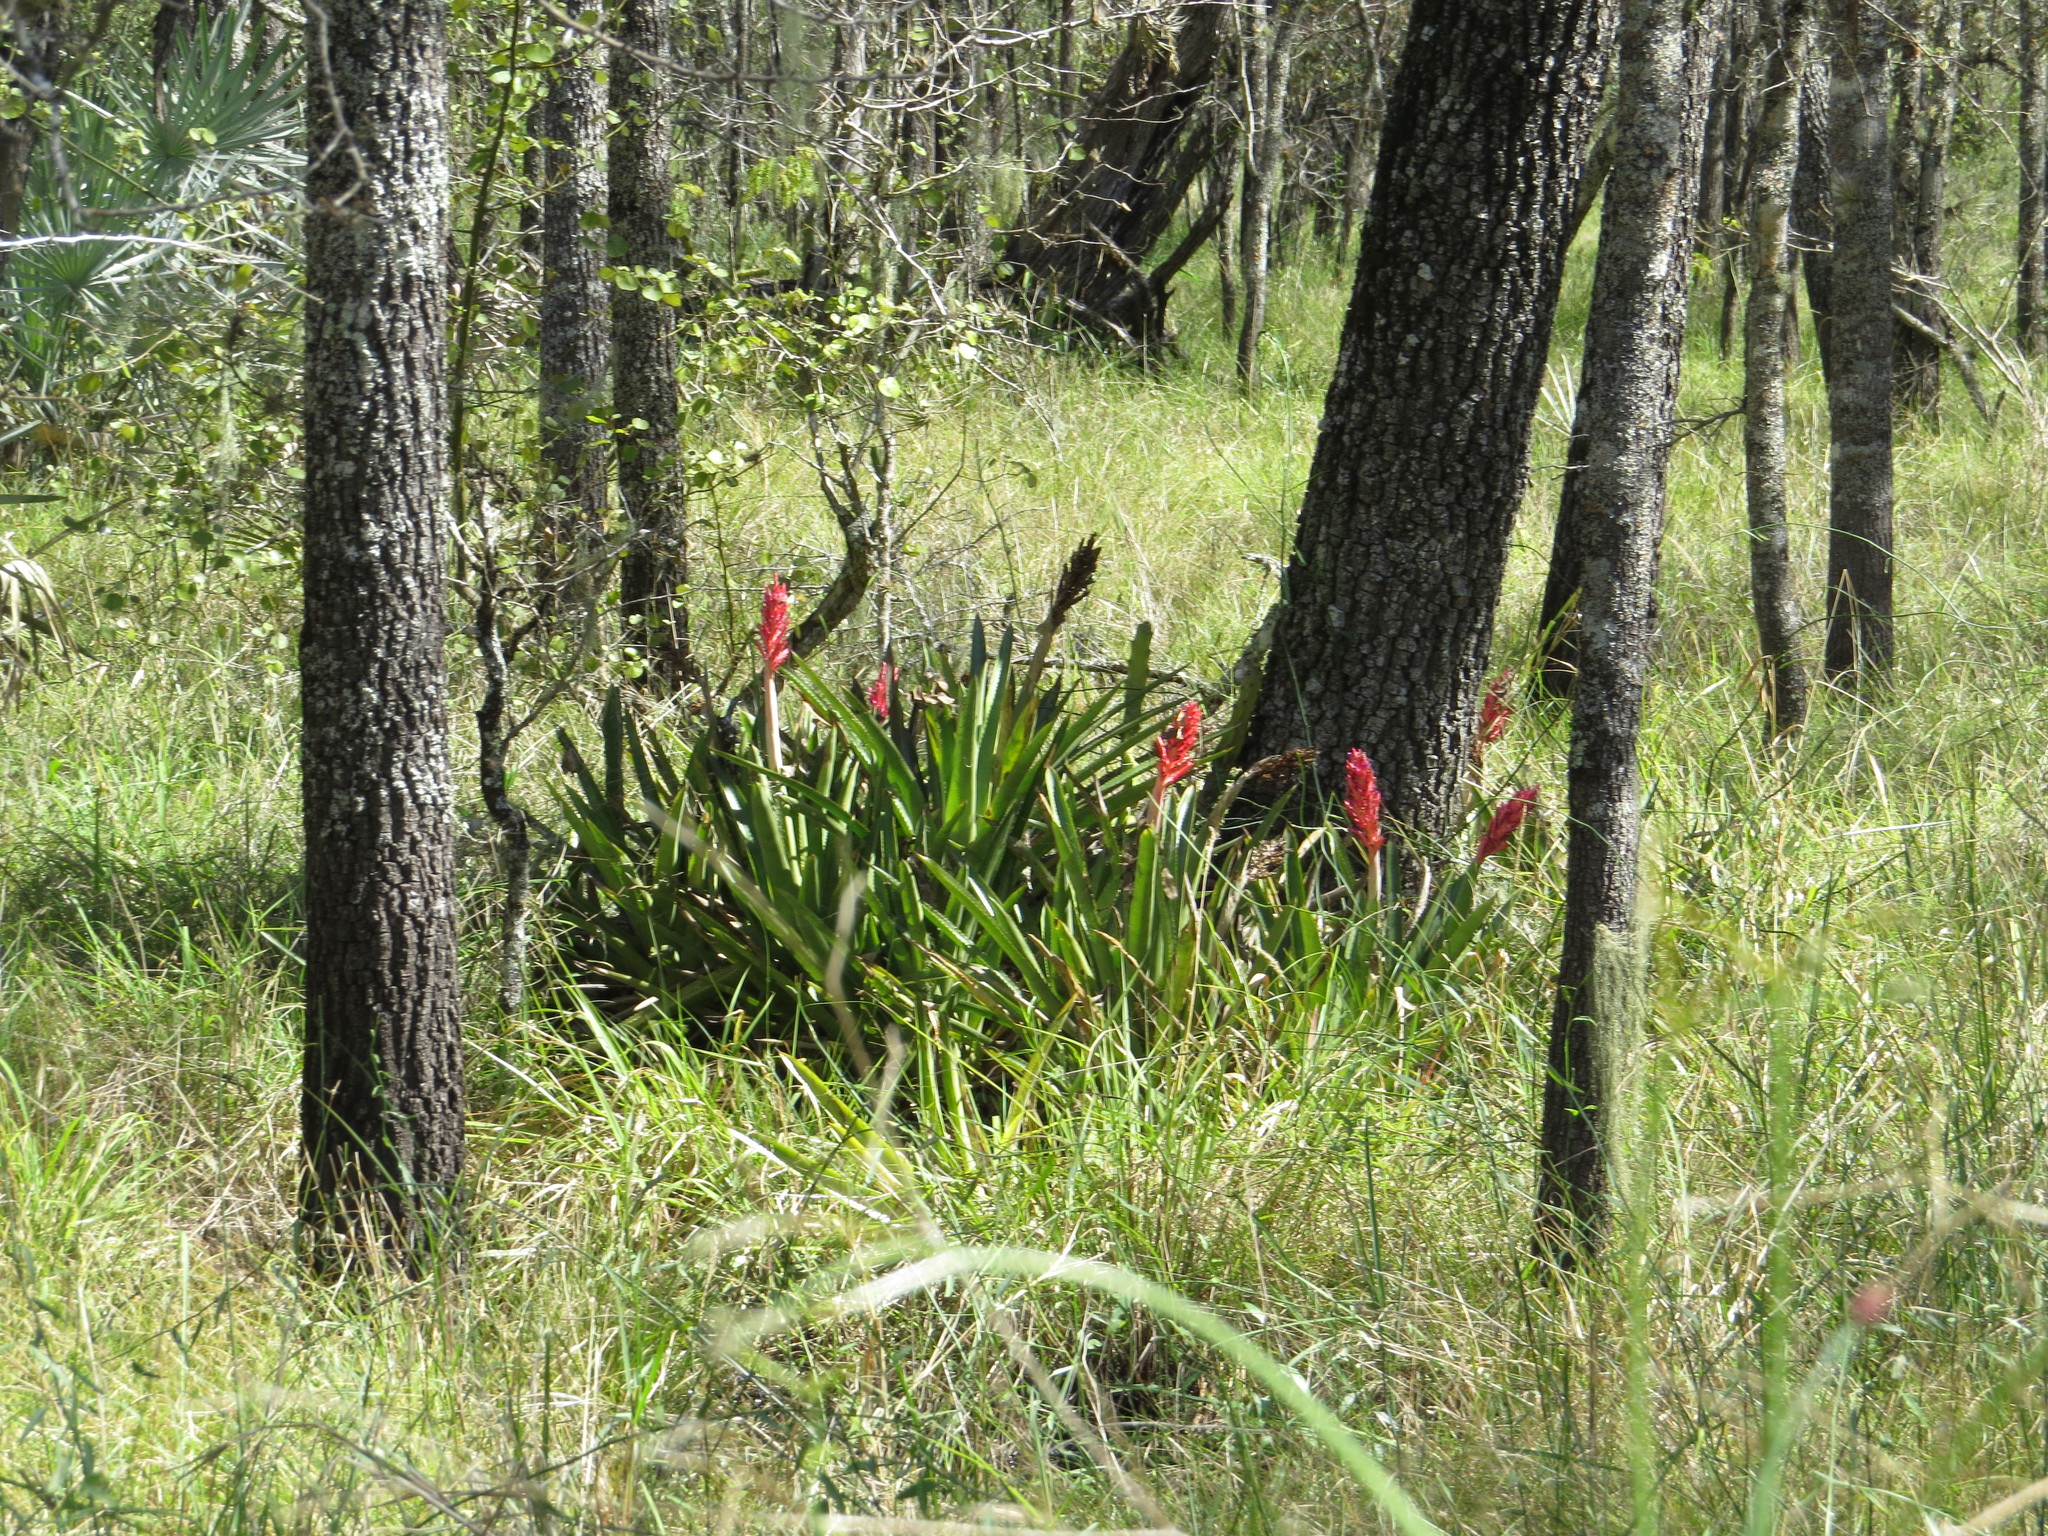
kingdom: Plantae
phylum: Tracheophyta
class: Liliopsida
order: Poales
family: Bromeliaceae
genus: Aechmea
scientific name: Aechmea distichantha
